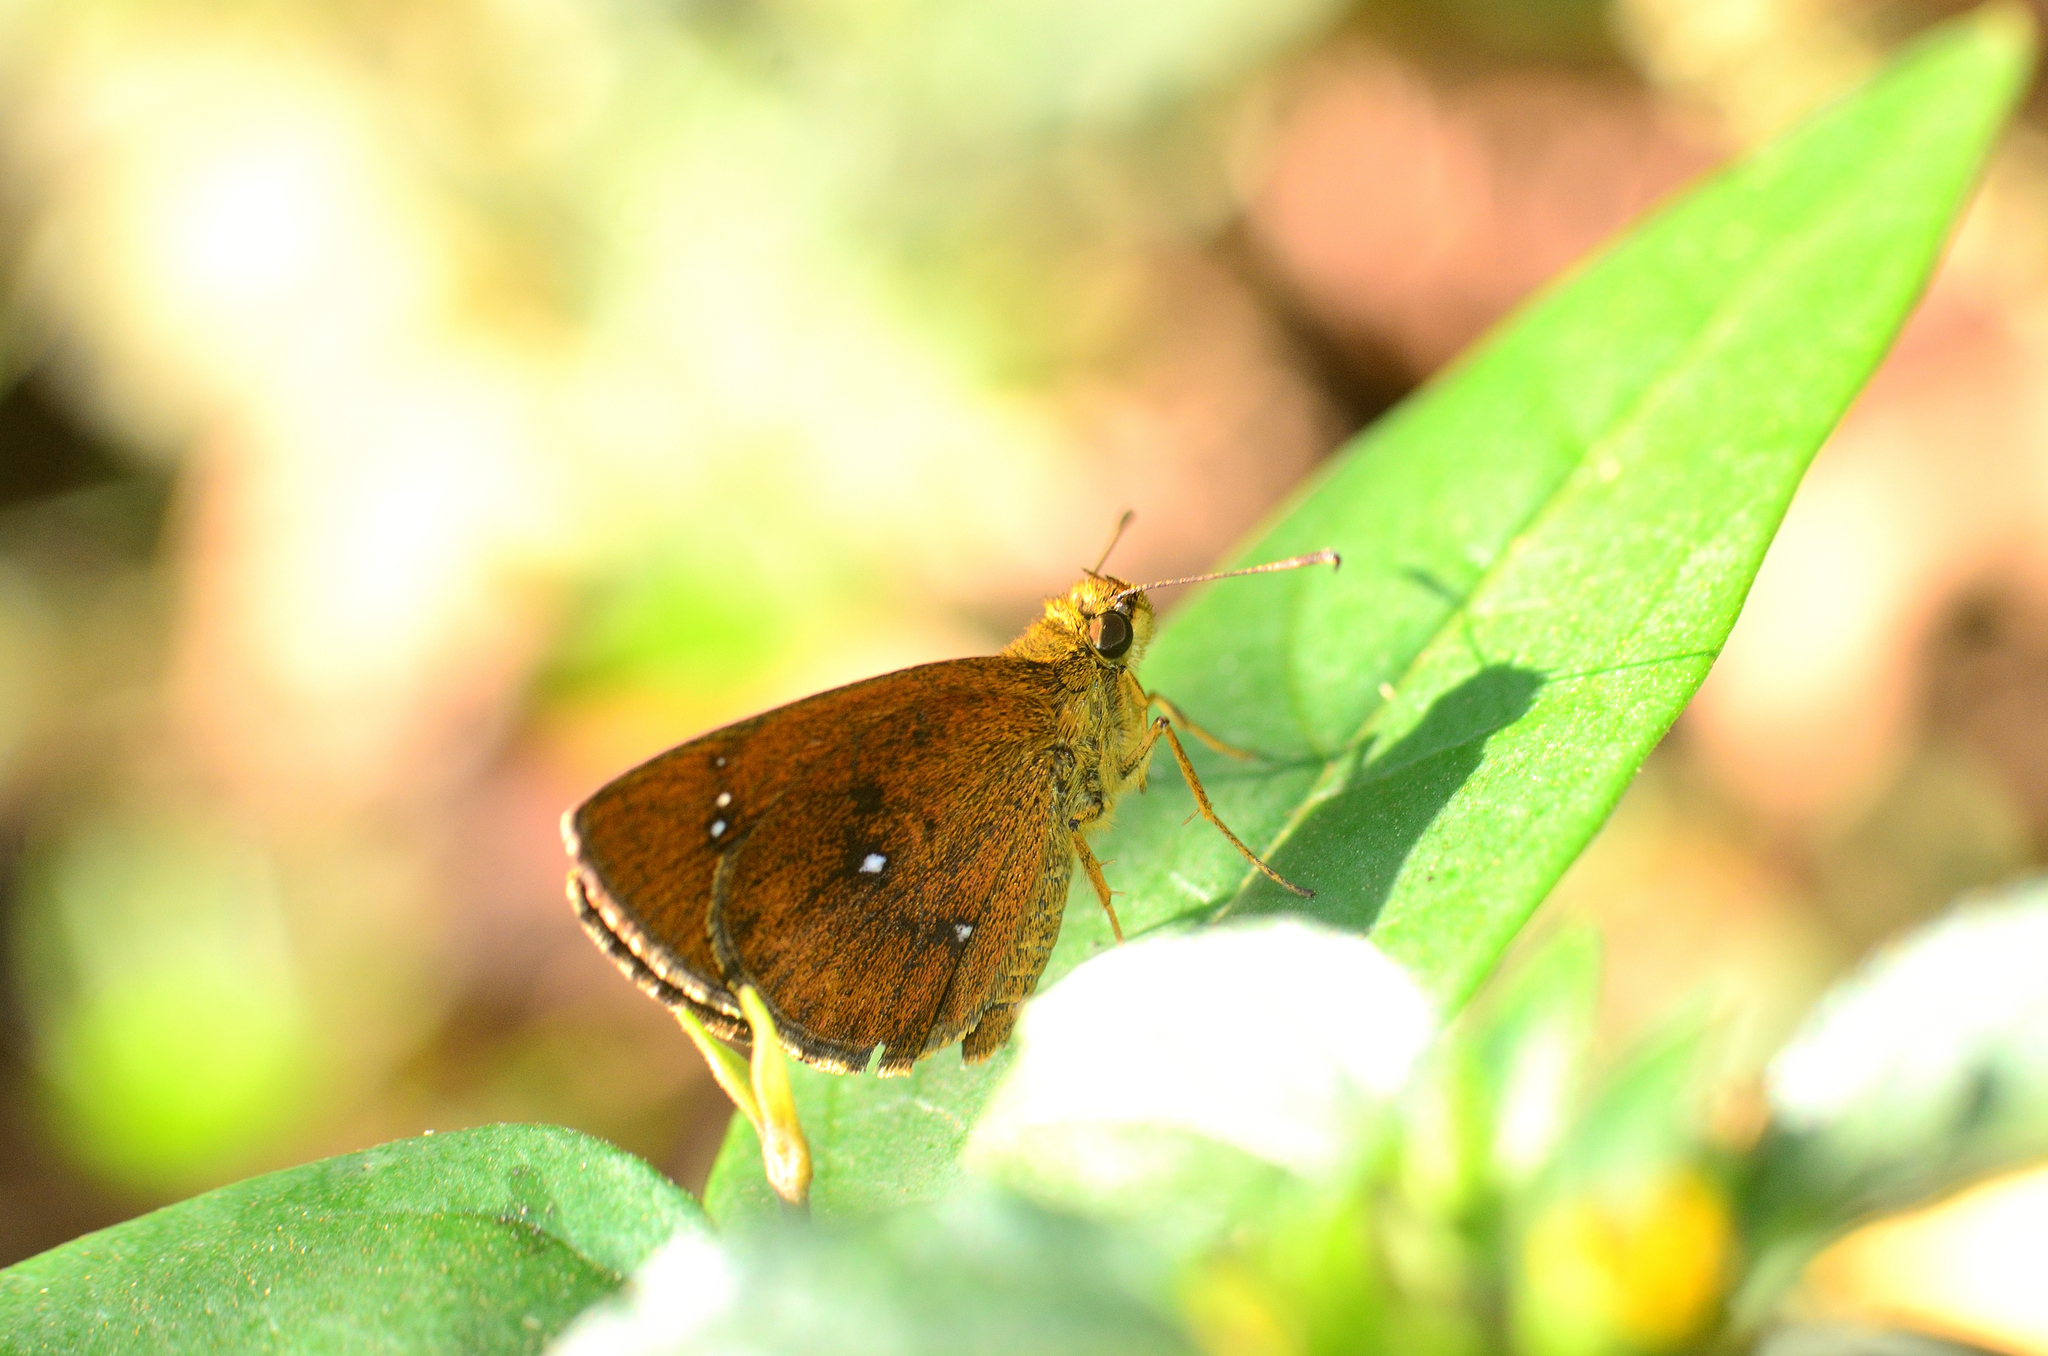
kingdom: Animalia
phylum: Arthropoda
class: Insecta
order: Lepidoptera
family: Hesperiidae
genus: Iambrix
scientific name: Iambrix salsala
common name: Chestnut bob
